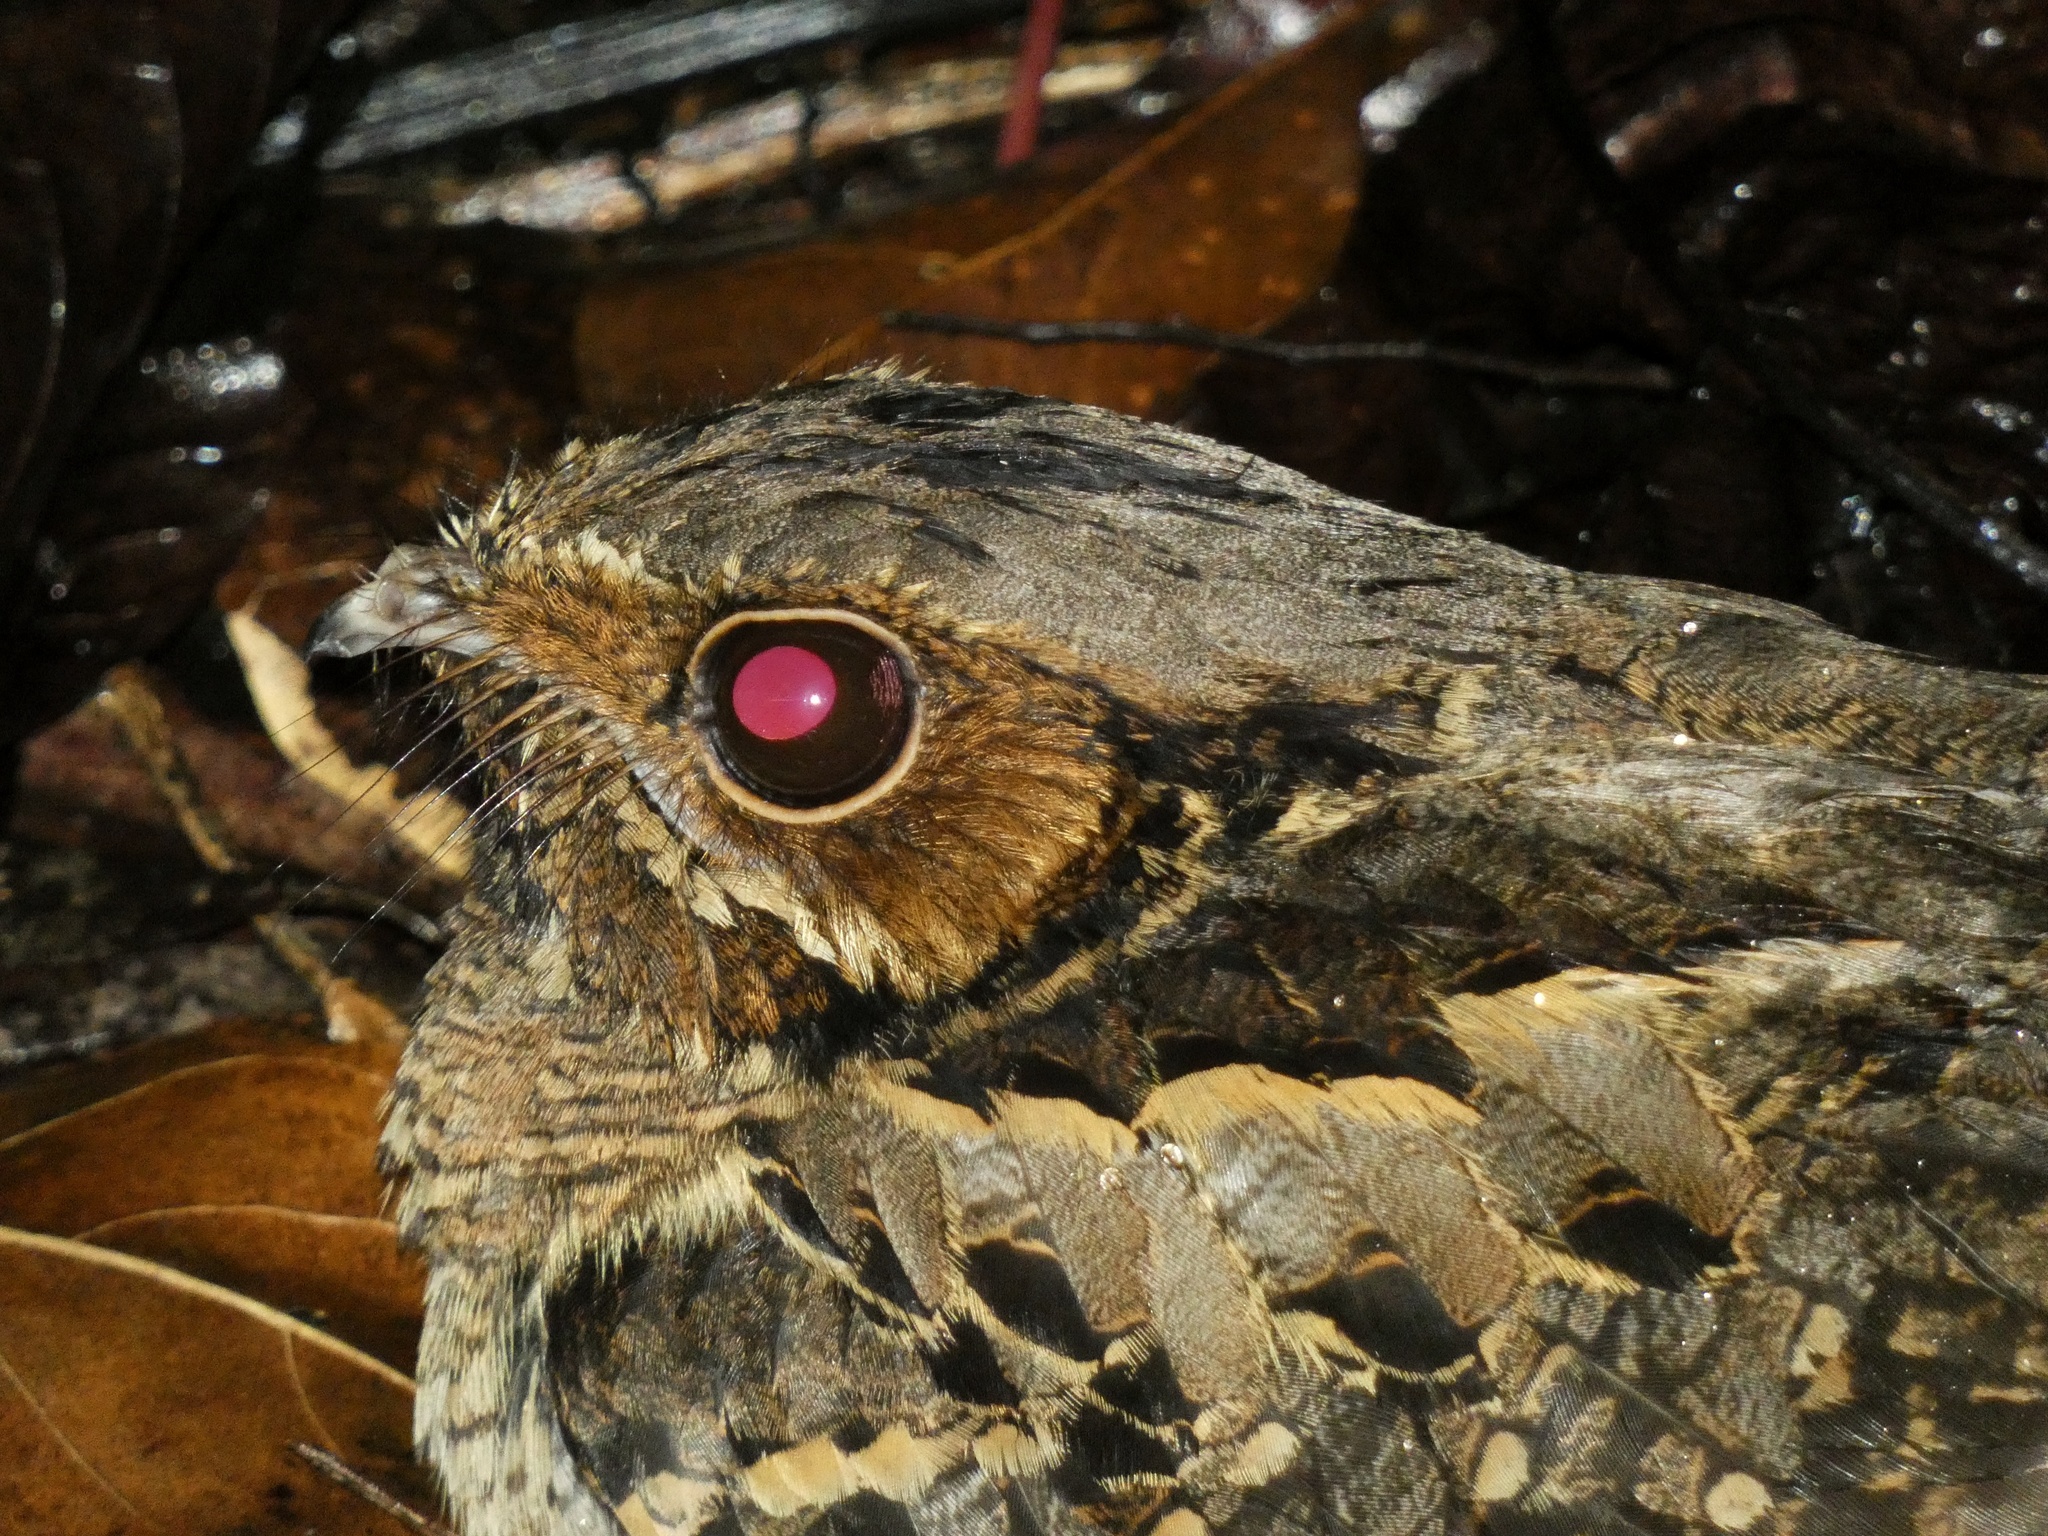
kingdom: Animalia
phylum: Chordata
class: Aves
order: Caprimulgiformes
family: Caprimulgidae
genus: Nyctidromus
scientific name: Nyctidromus albicollis
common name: Pauraque
